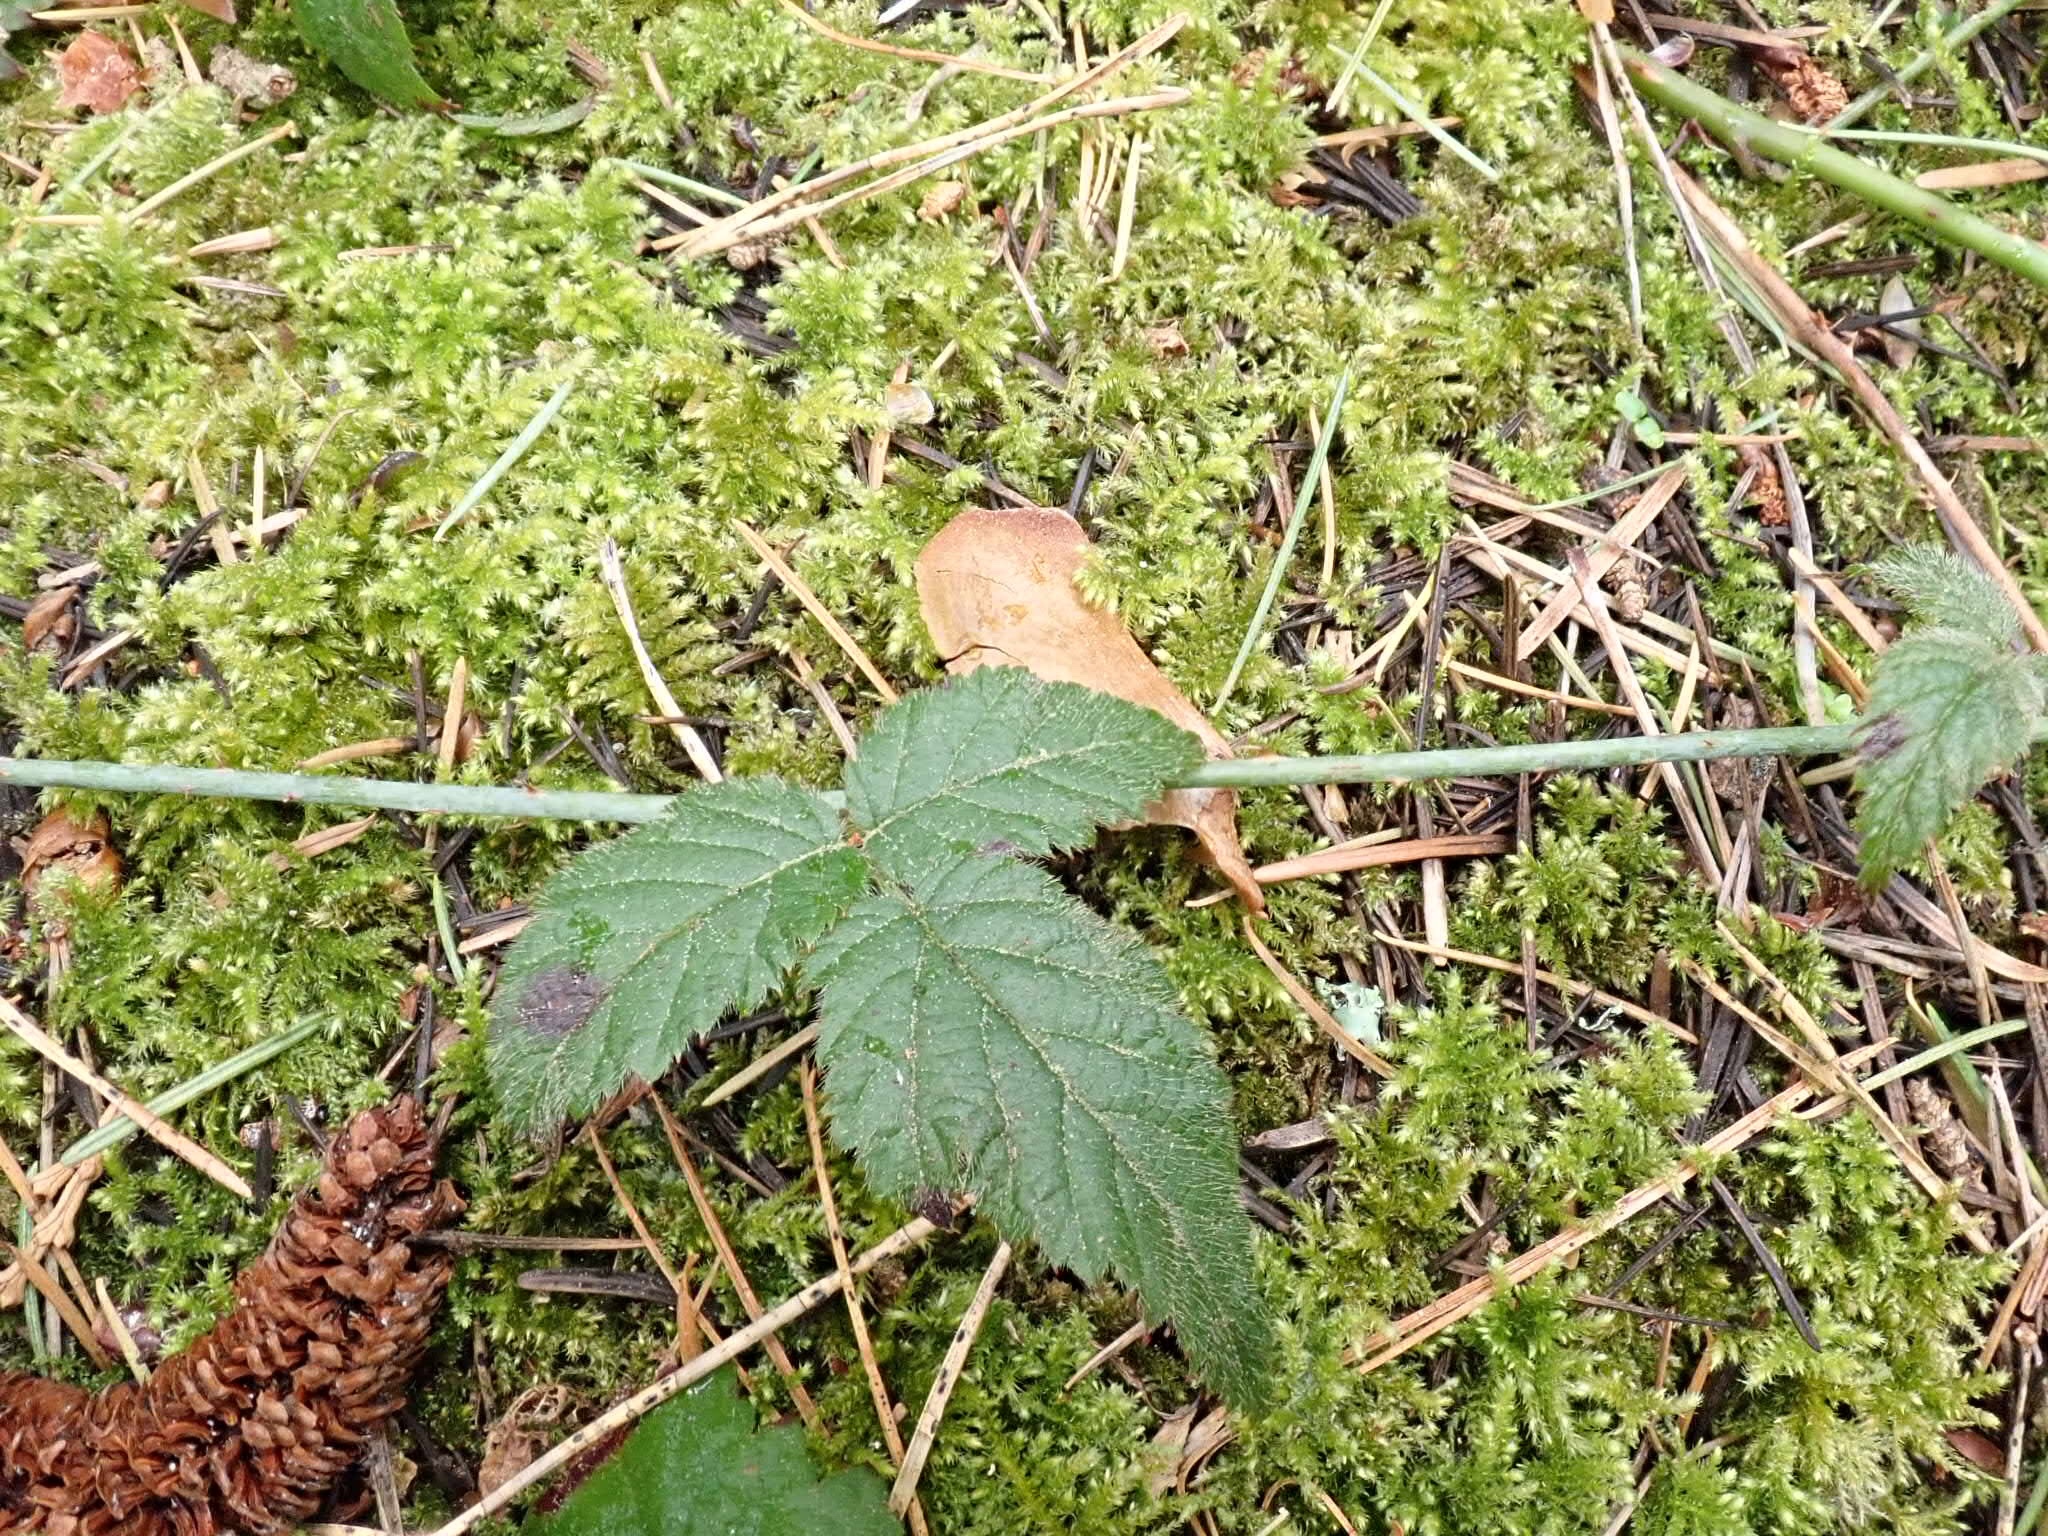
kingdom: Plantae
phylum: Tracheophyta
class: Magnoliopsida
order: Rosales
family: Rosaceae
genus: Rubus
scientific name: Rubus ursinus
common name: Pacific blackberry
